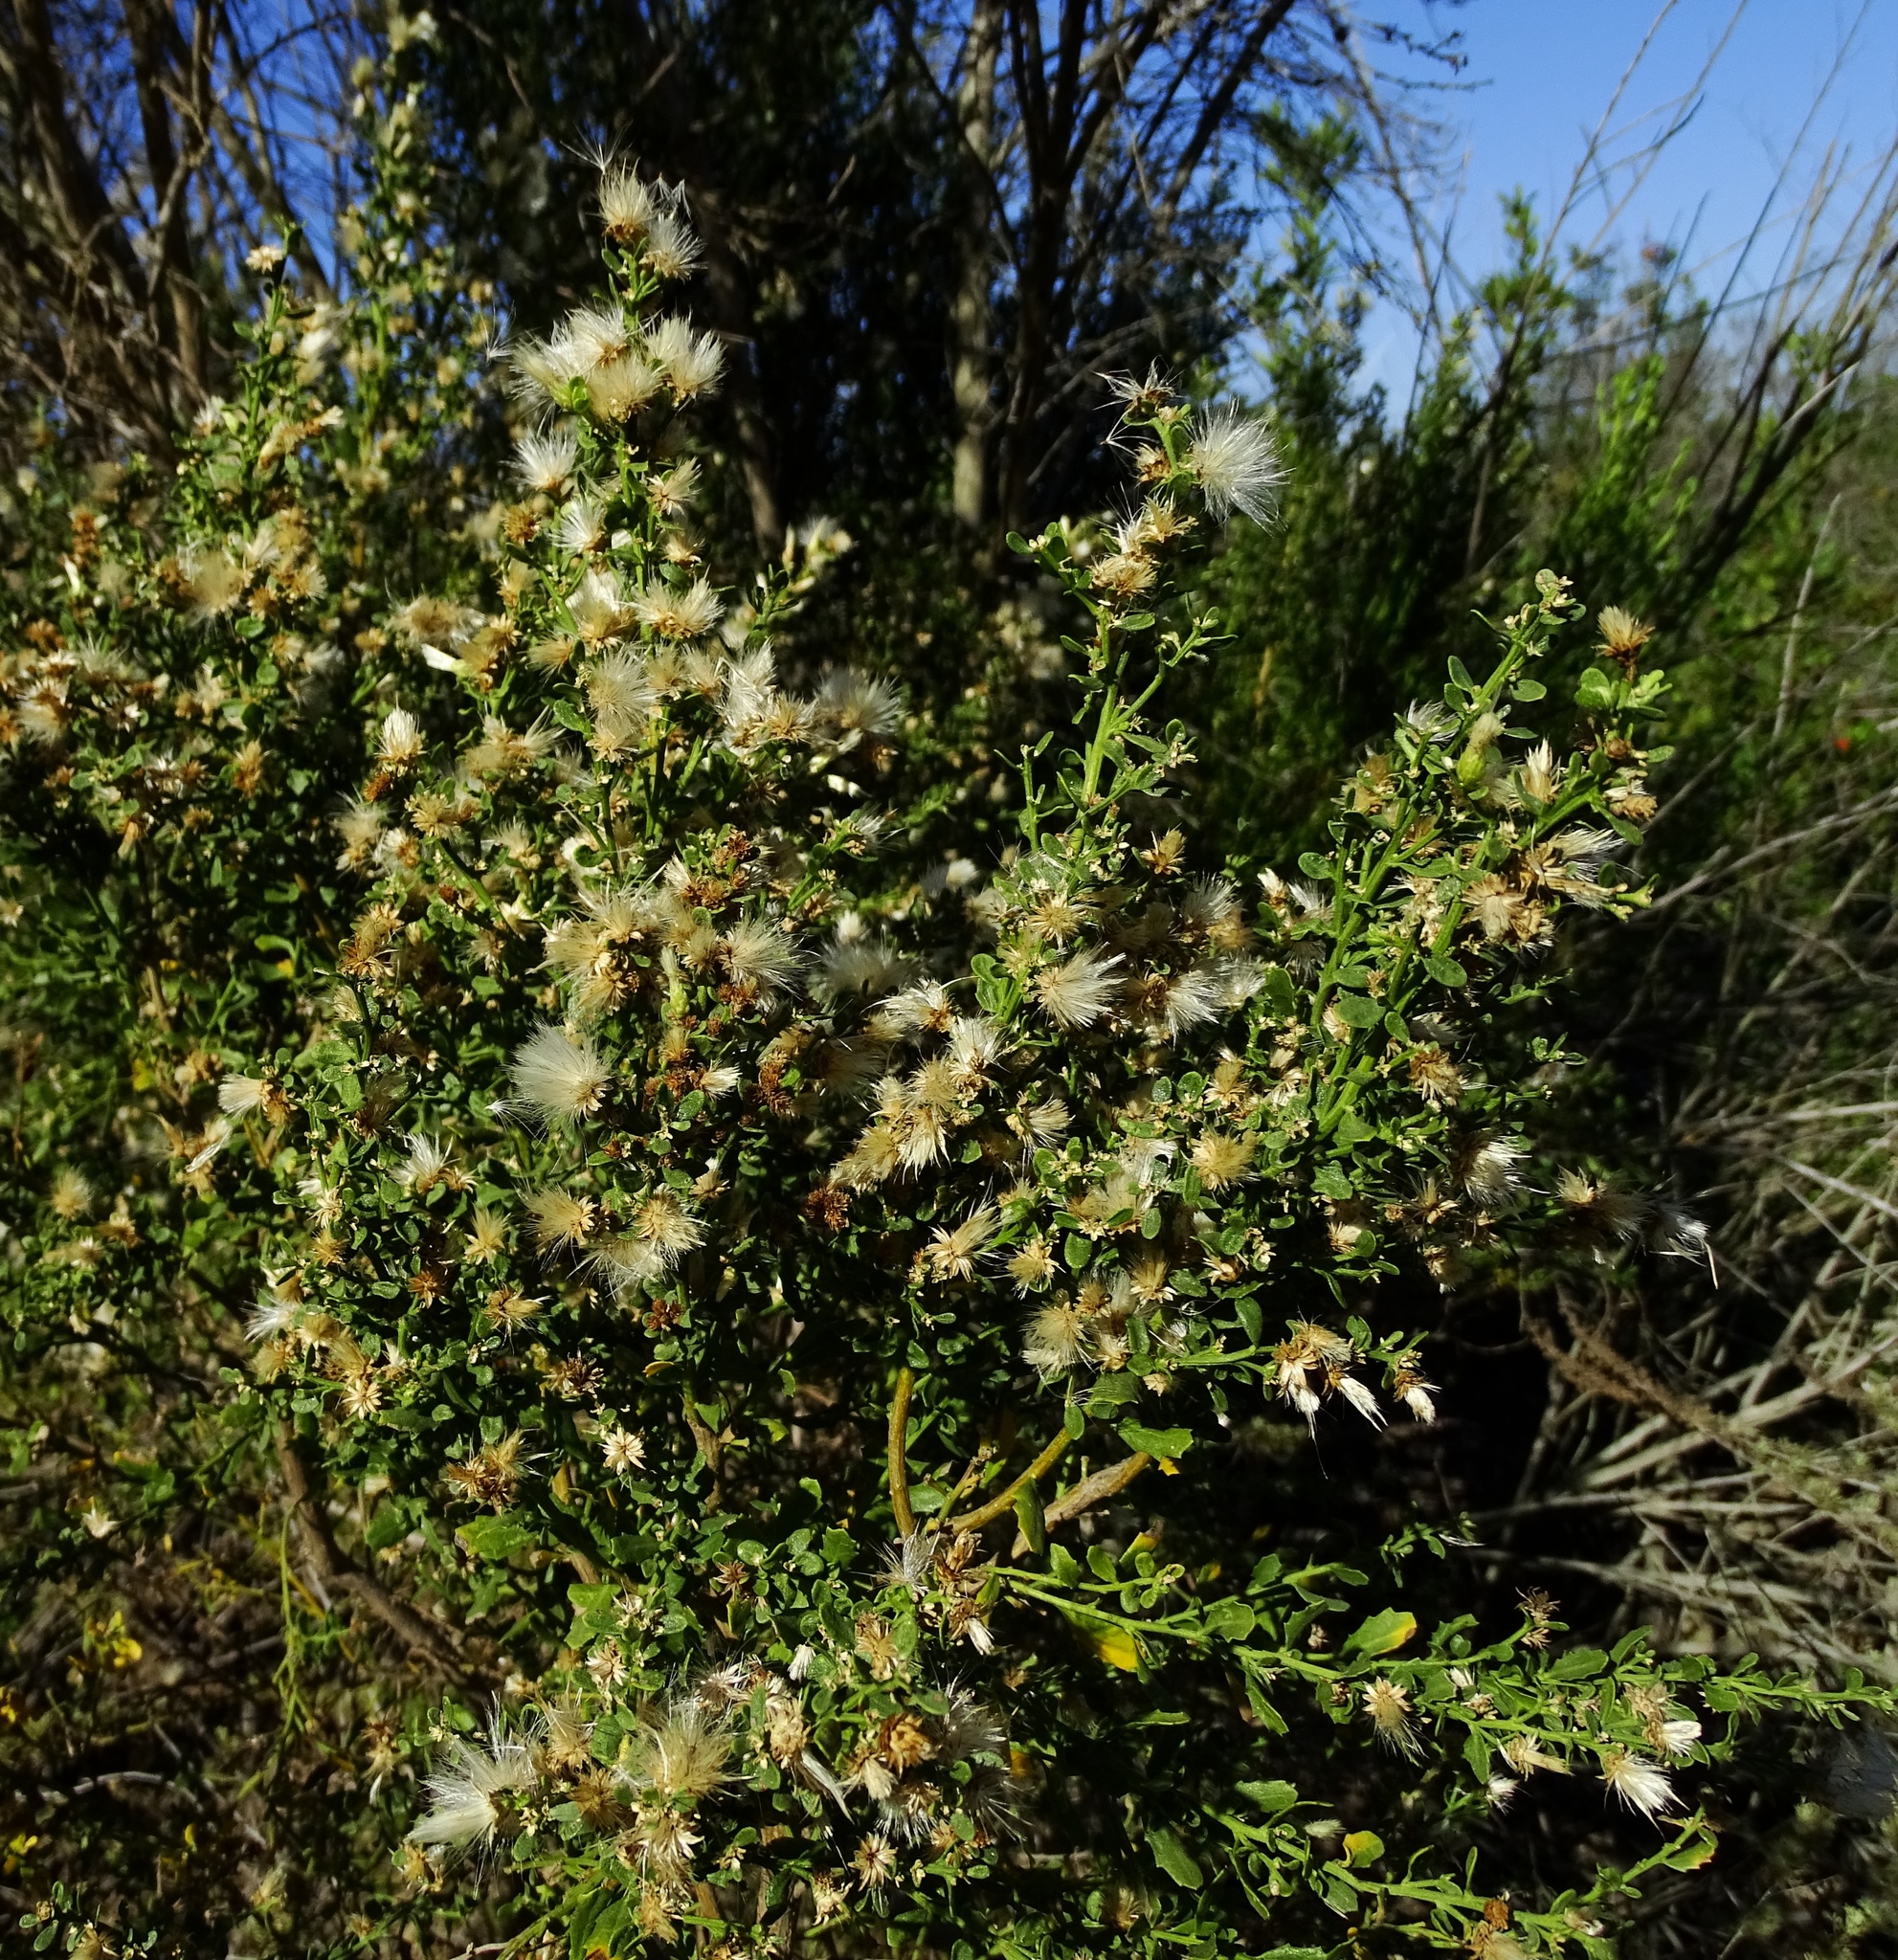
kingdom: Plantae
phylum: Tracheophyta
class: Magnoliopsida
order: Asterales
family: Asteraceae
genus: Baccharis
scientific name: Baccharis pilularis
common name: Coyotebrush
